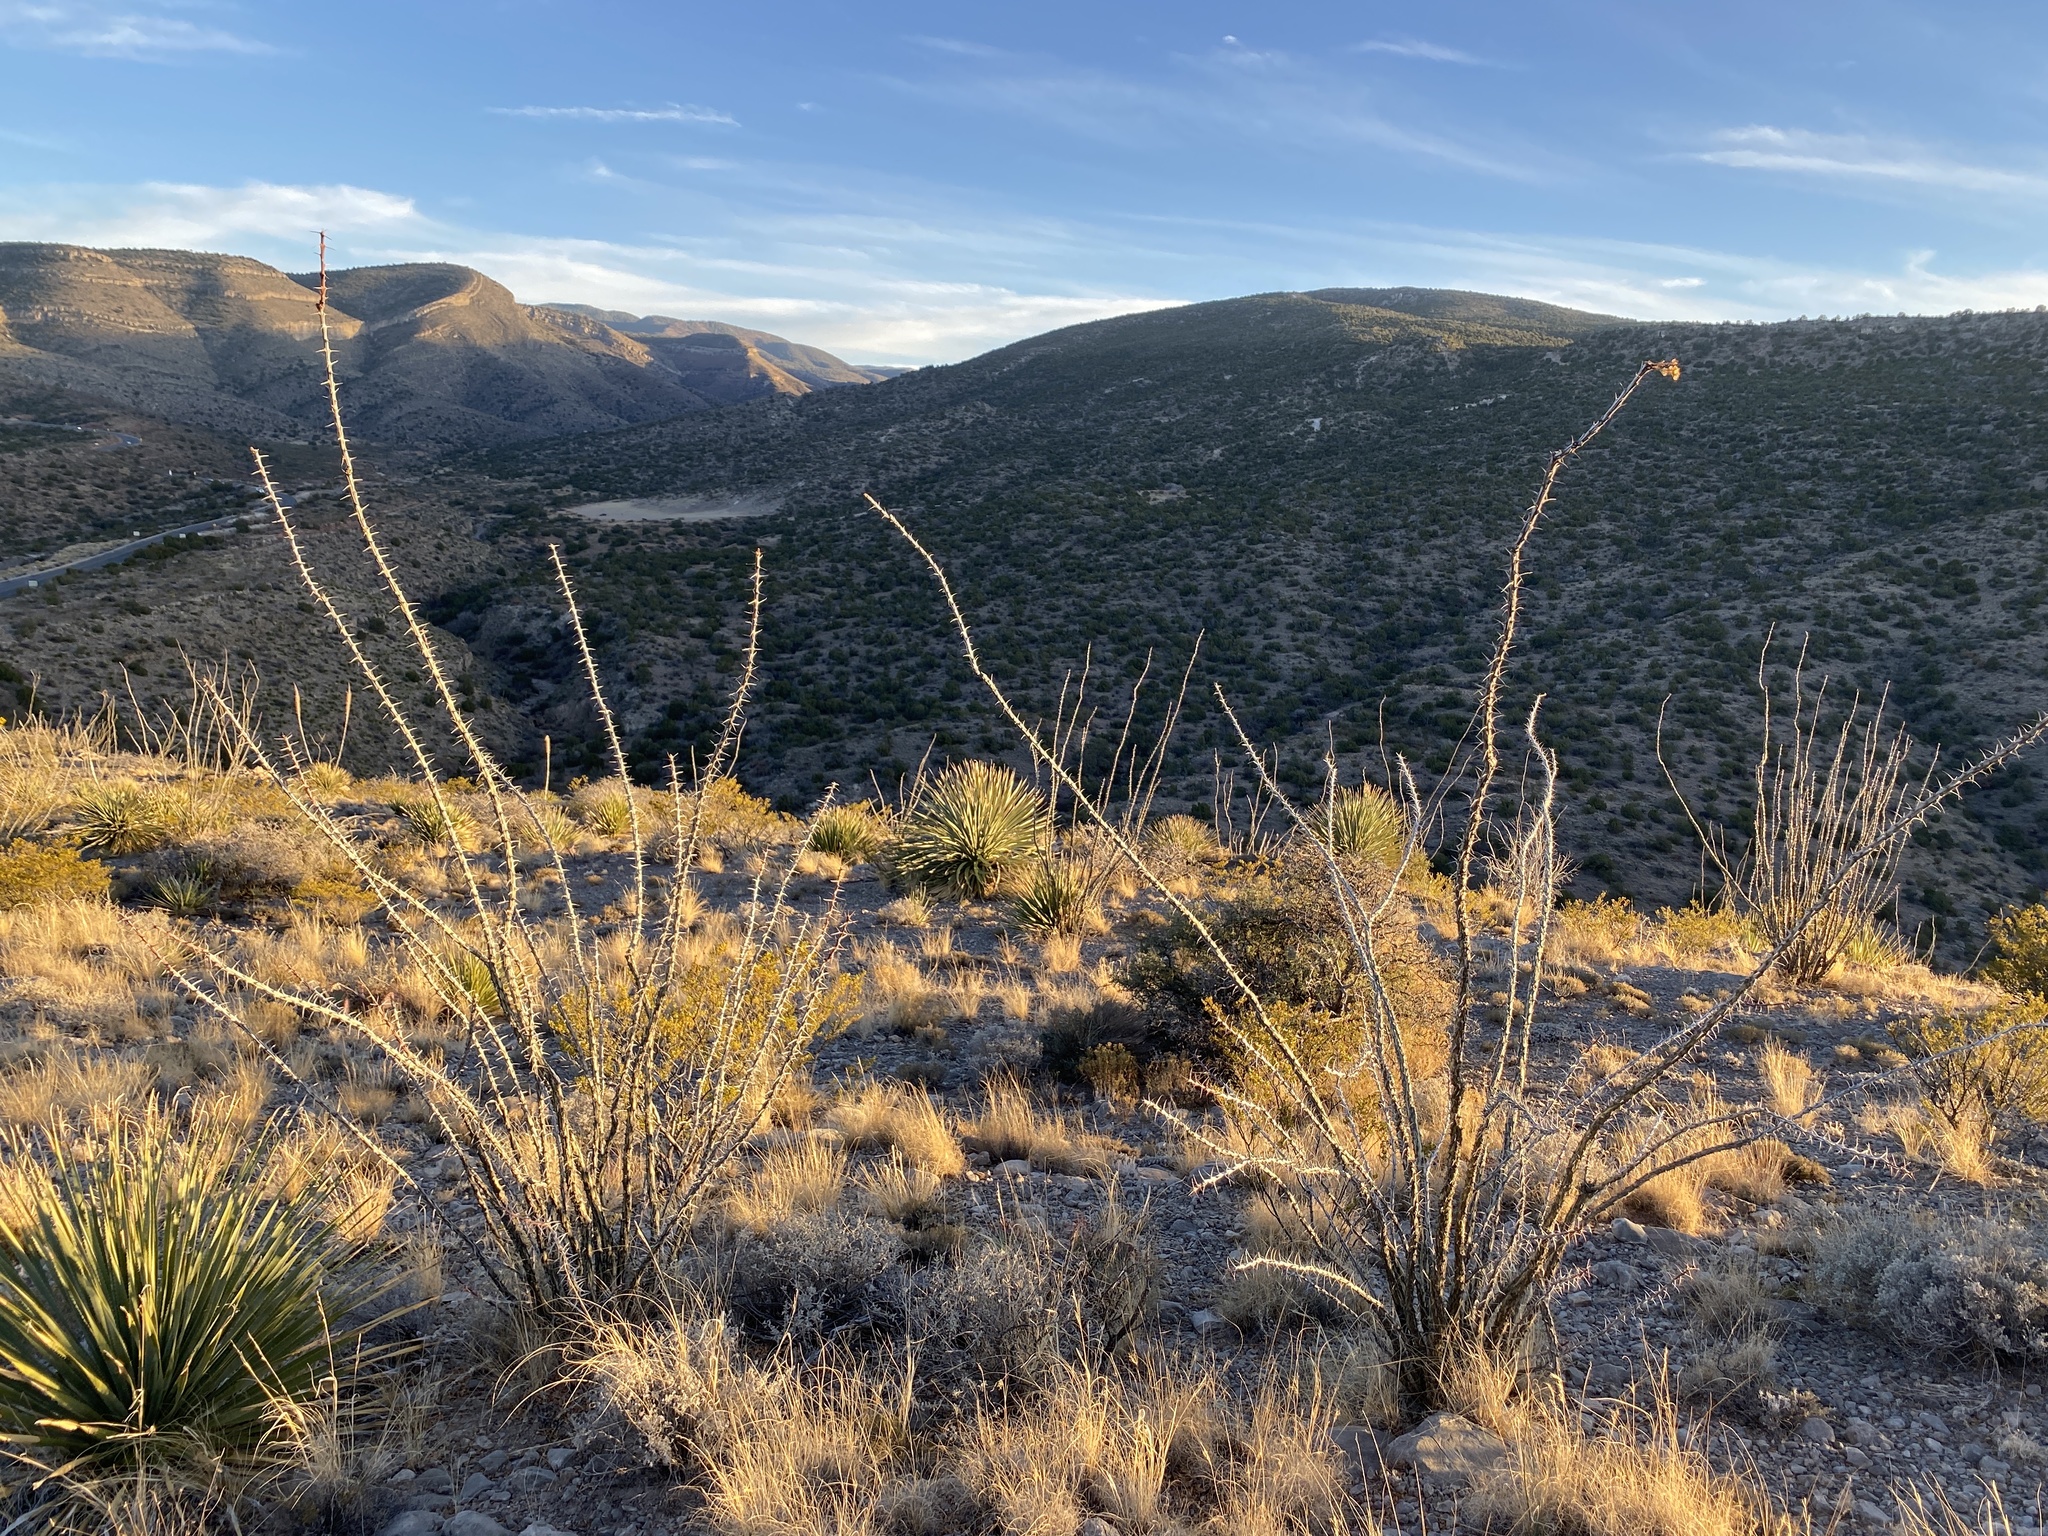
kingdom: Plantae
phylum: Tracheophyta
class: Magnoliopsida
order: Ericales
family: Fouquieriaceae
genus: Fouquieria
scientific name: Fouquieria splendens
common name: Vine-cactus
